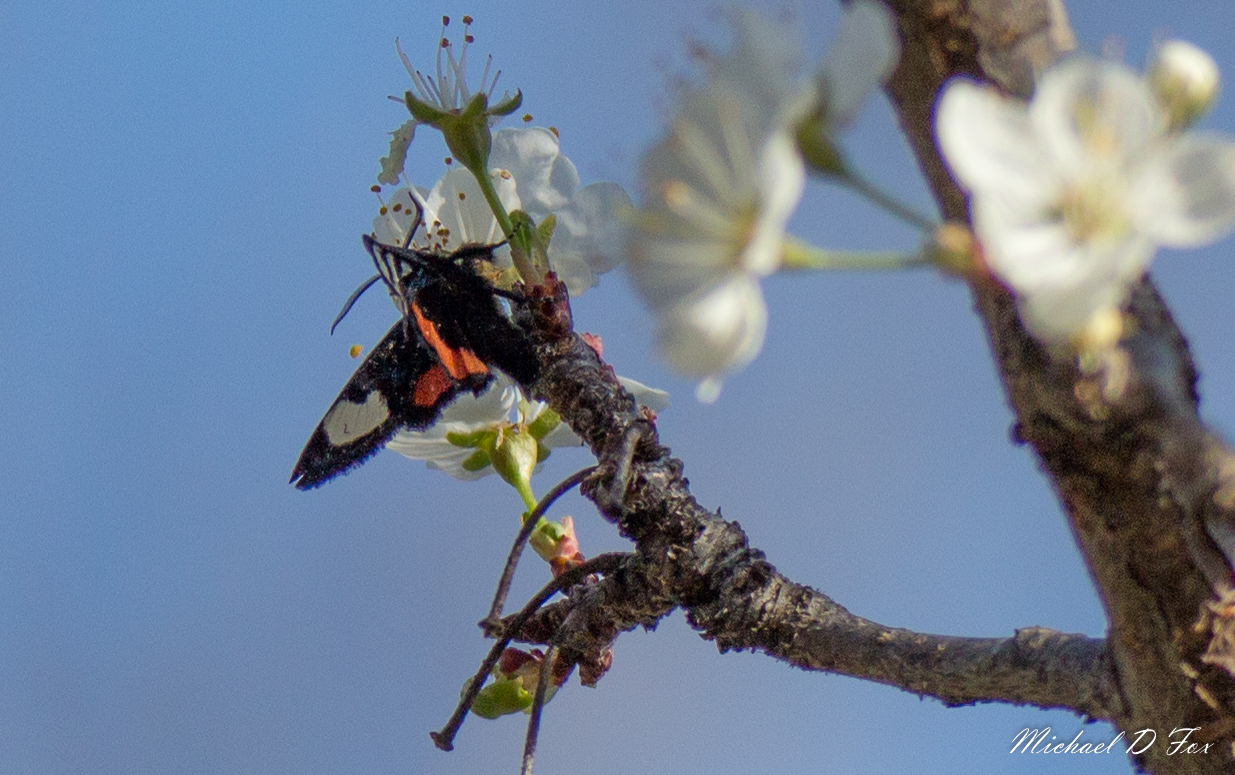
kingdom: Animalia
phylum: Arthropoda
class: Insecta
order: Lepidoptera
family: Noctuidae
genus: Psychomorpha
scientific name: Psychomorpha epimenis
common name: Grapevine epimenis moth
